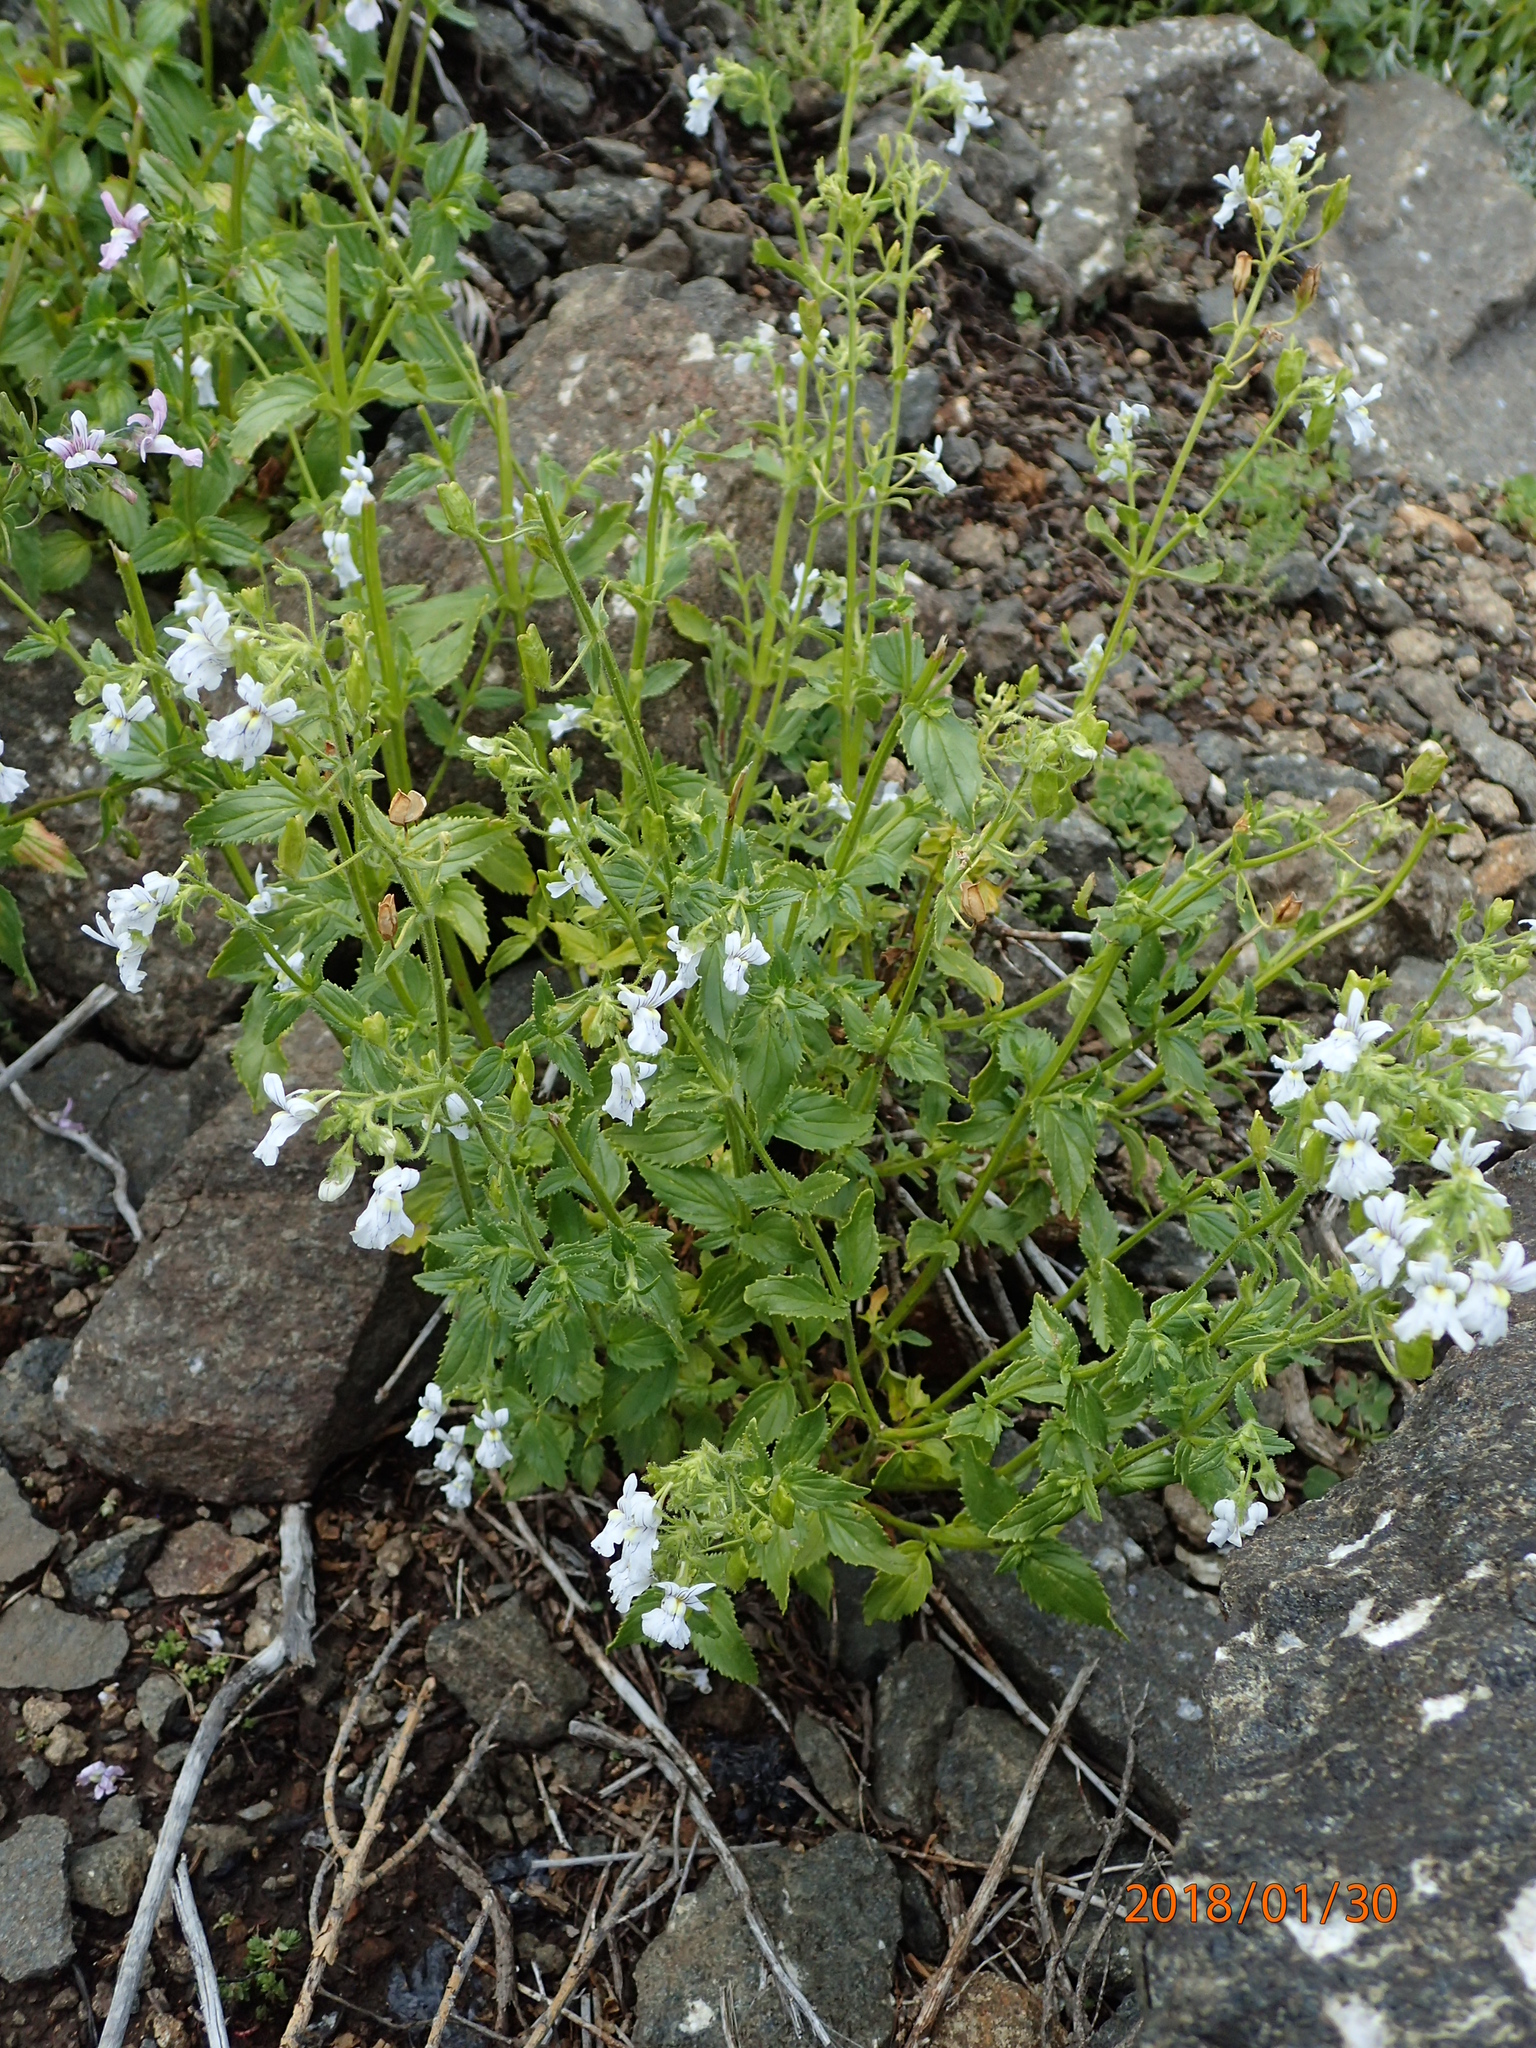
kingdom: Plantae
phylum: Tracheophyta
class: Magnoliopsida
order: Lamiales
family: Scrophulariaceae
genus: Nemesia
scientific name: Nemesia rupicola
